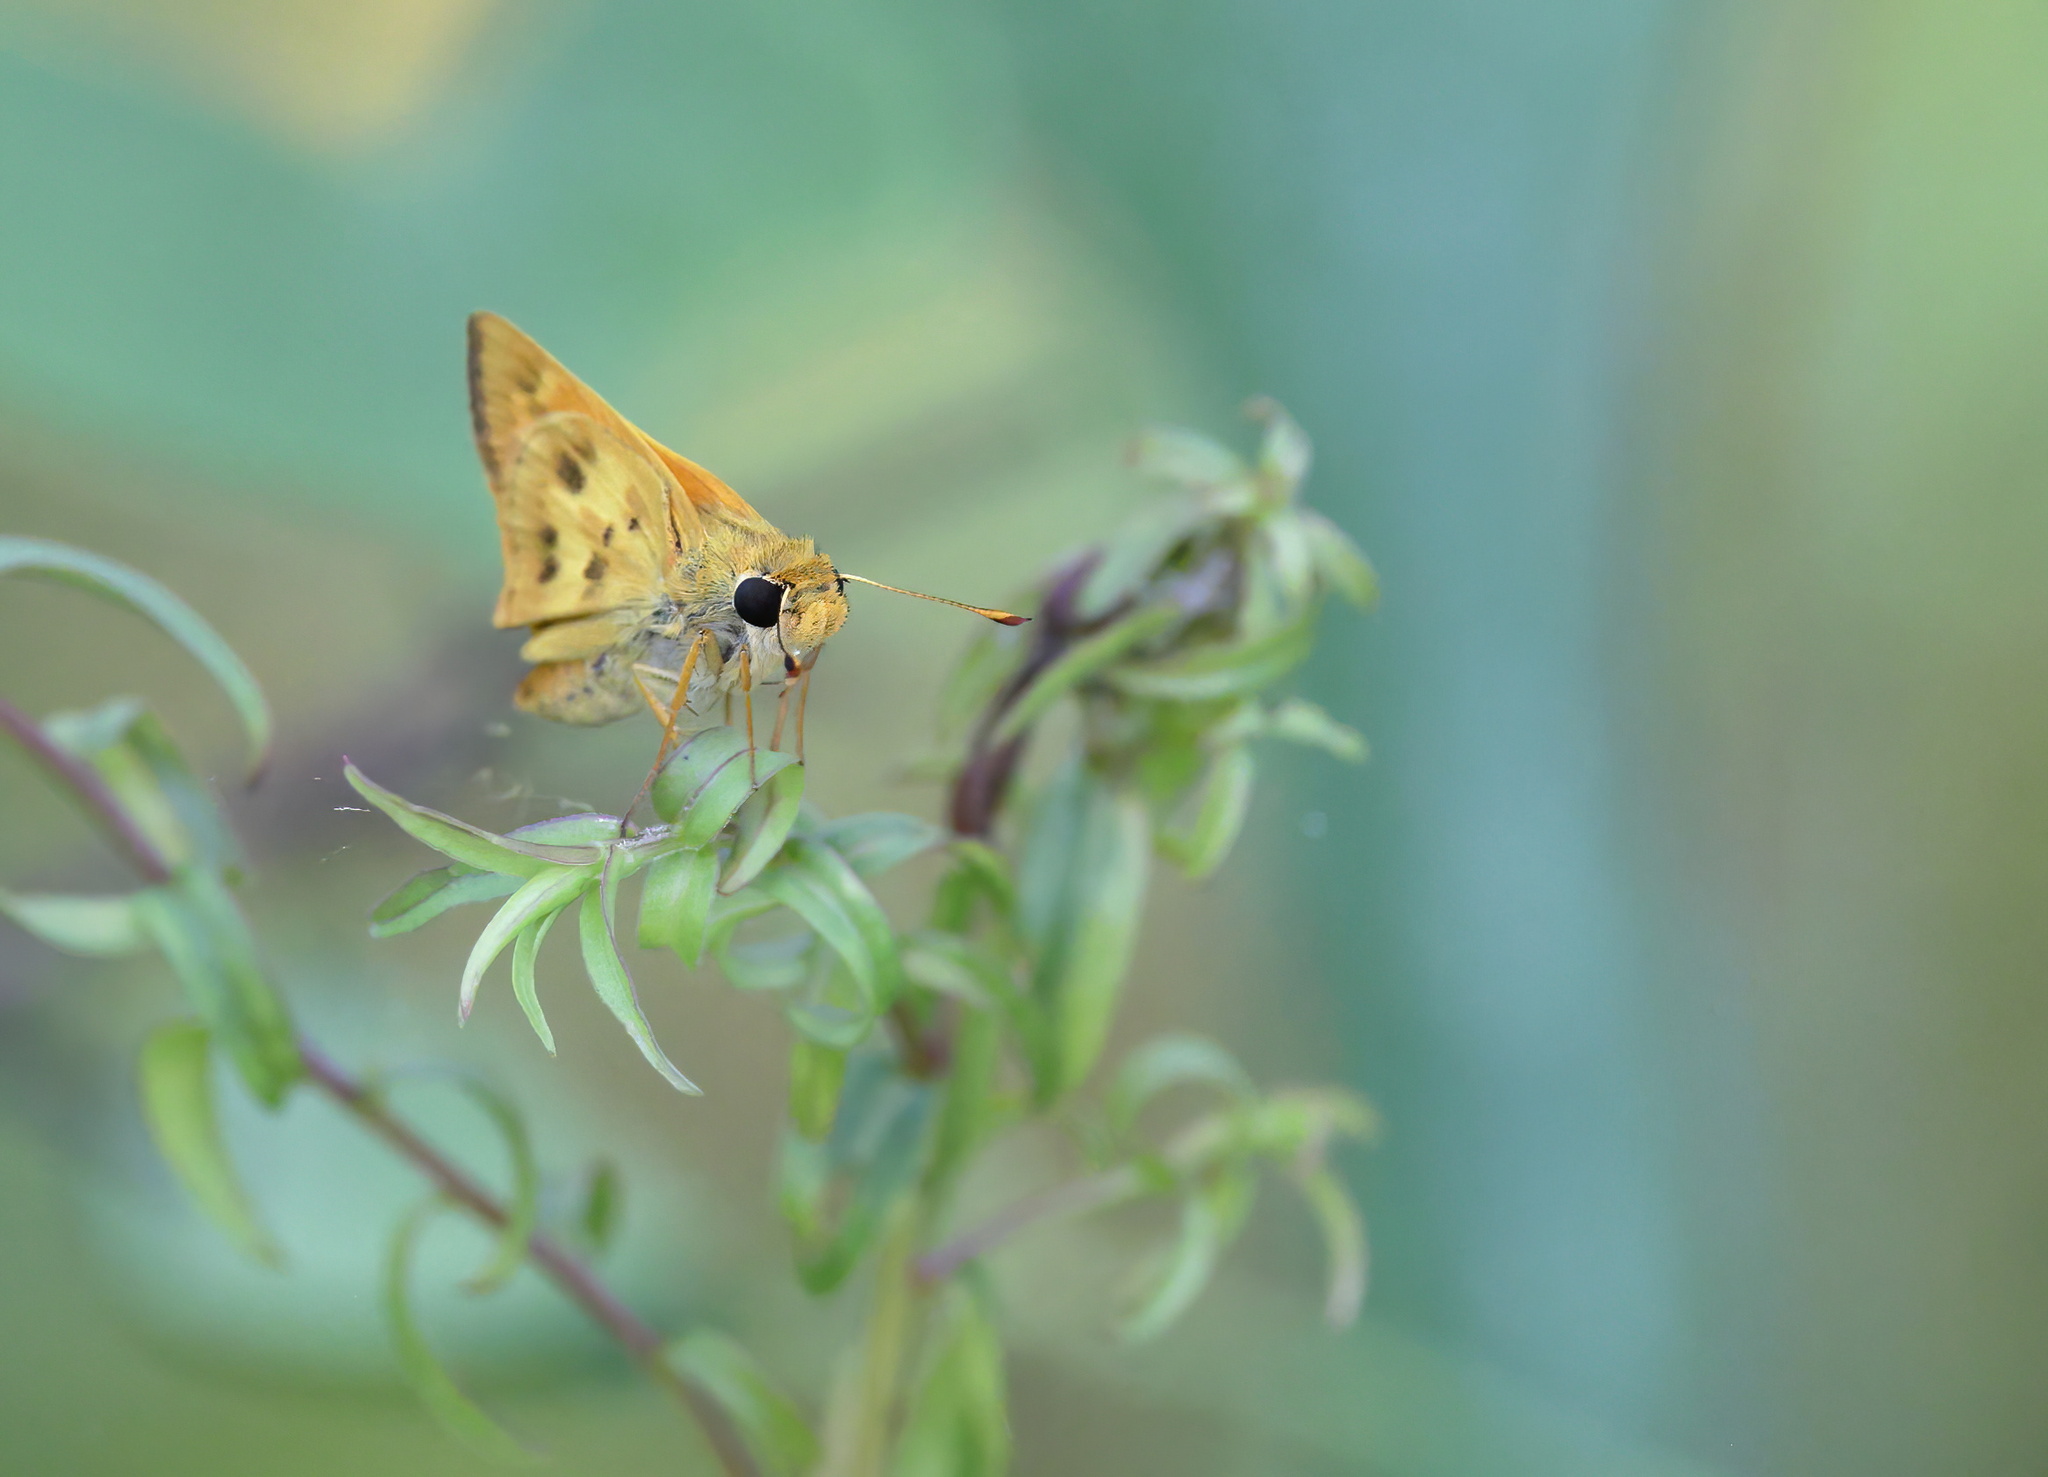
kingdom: Animalia
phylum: Arthropoda
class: Insecta
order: Lepidoptera
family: Hesperiidae
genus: Polites
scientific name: Polites vibex
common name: Whirlabout
